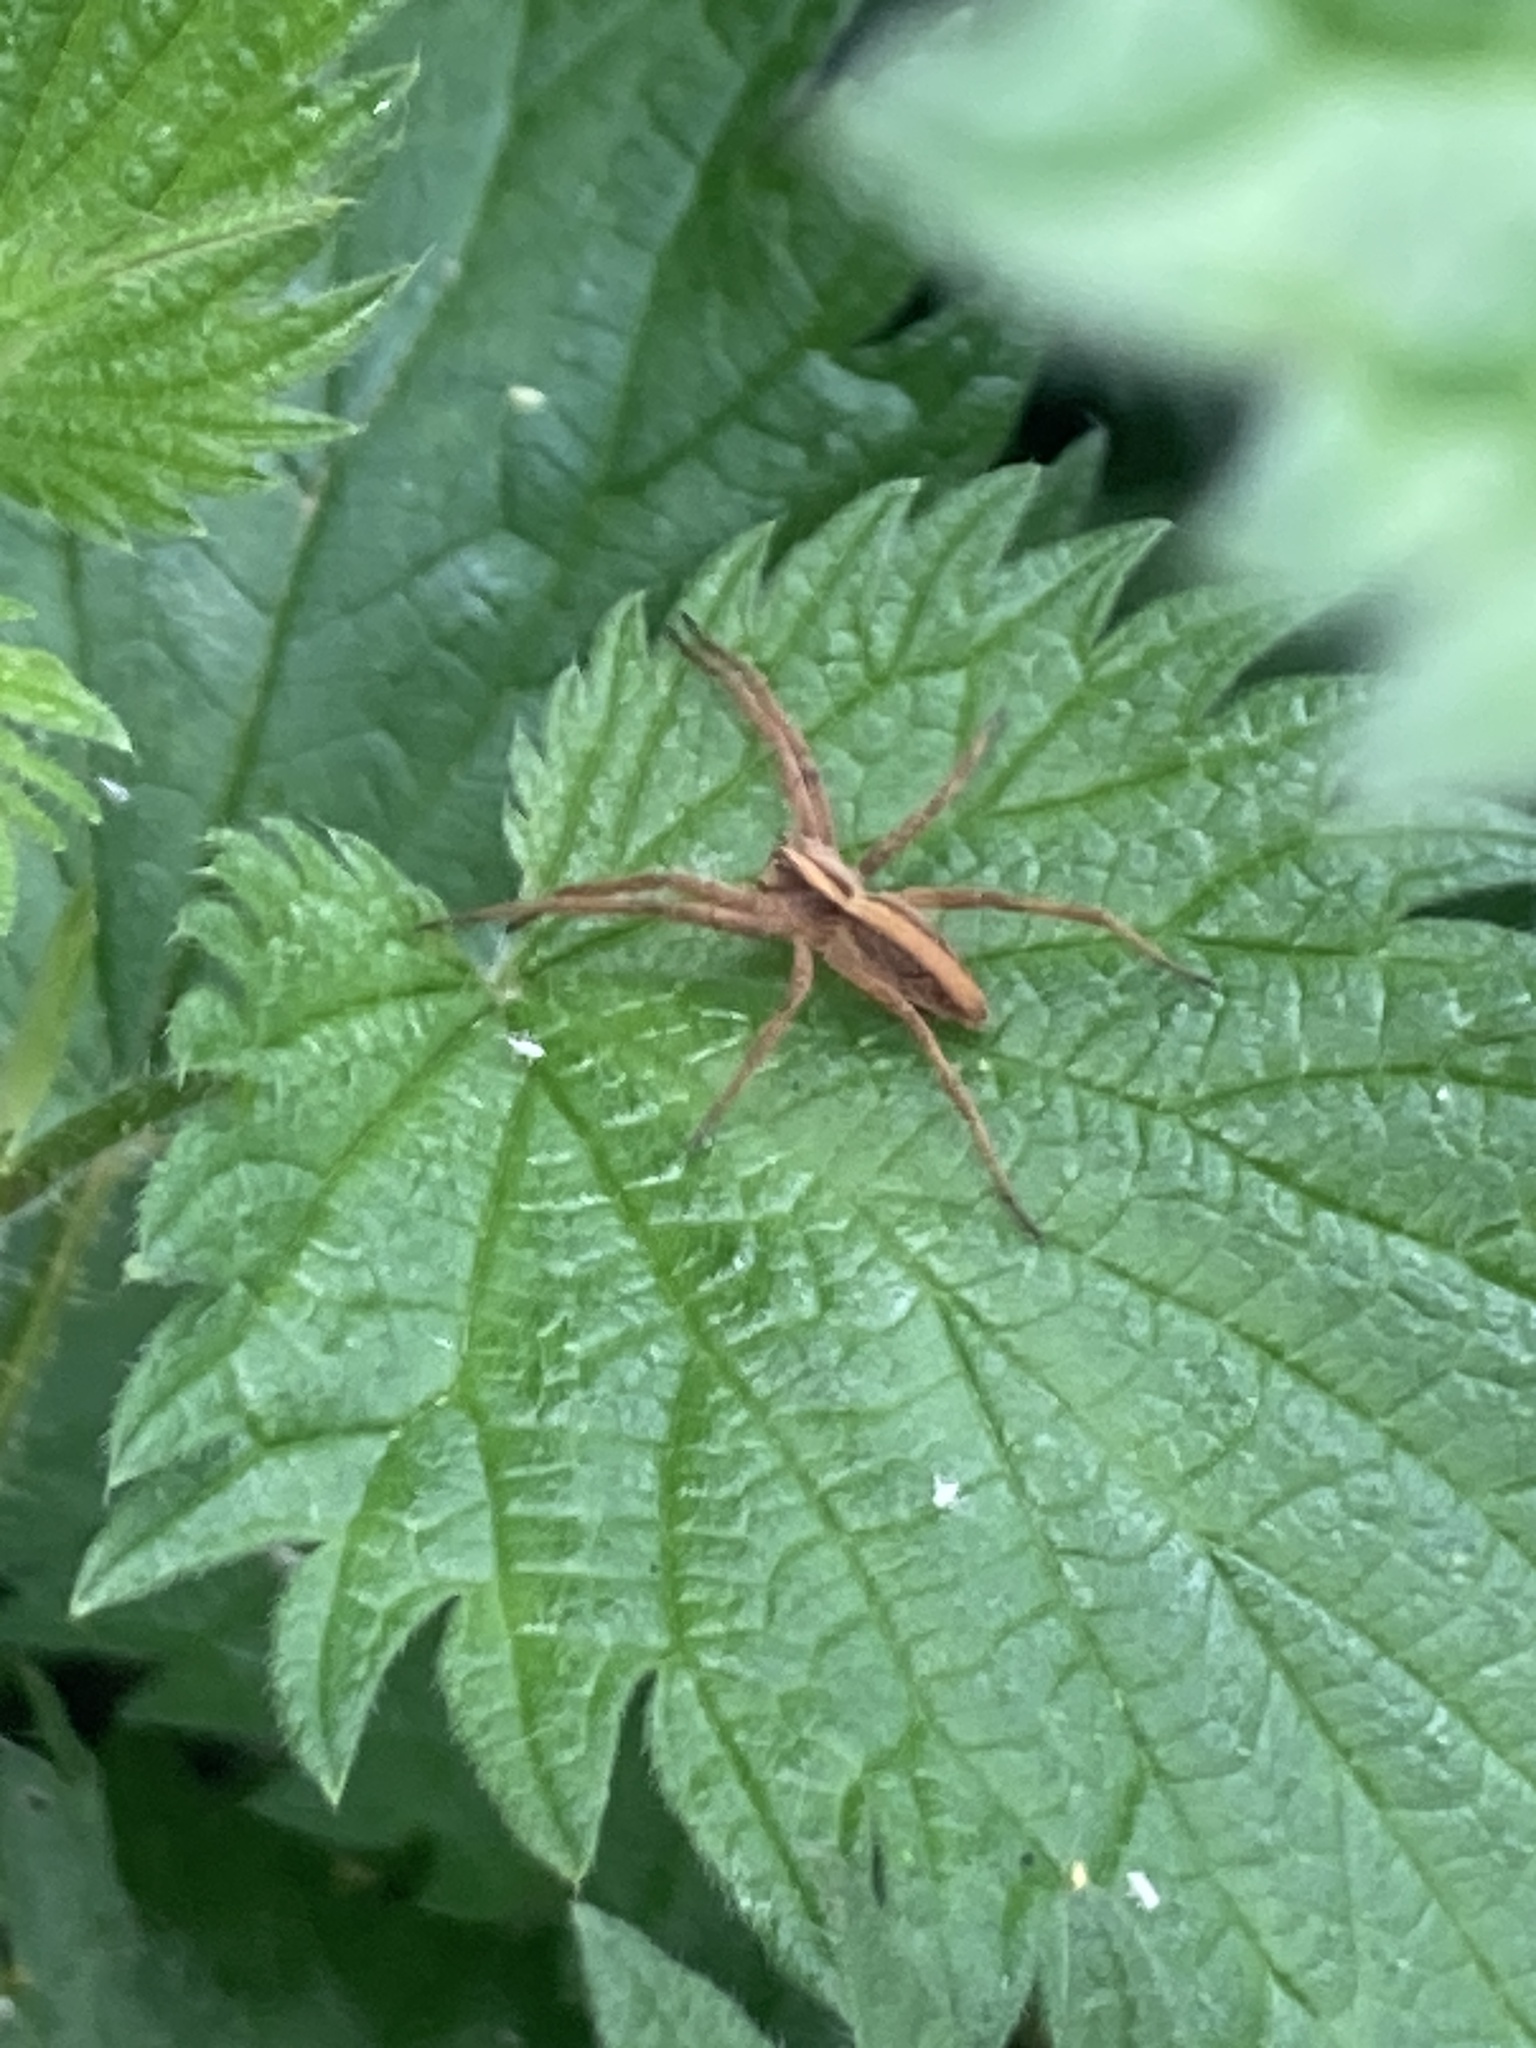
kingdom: Animalia
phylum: Arthropoda
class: Arachnida
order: Araneae
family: Pisauridae
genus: Pisaura
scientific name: Pisaura mirabilis
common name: Tent spider
